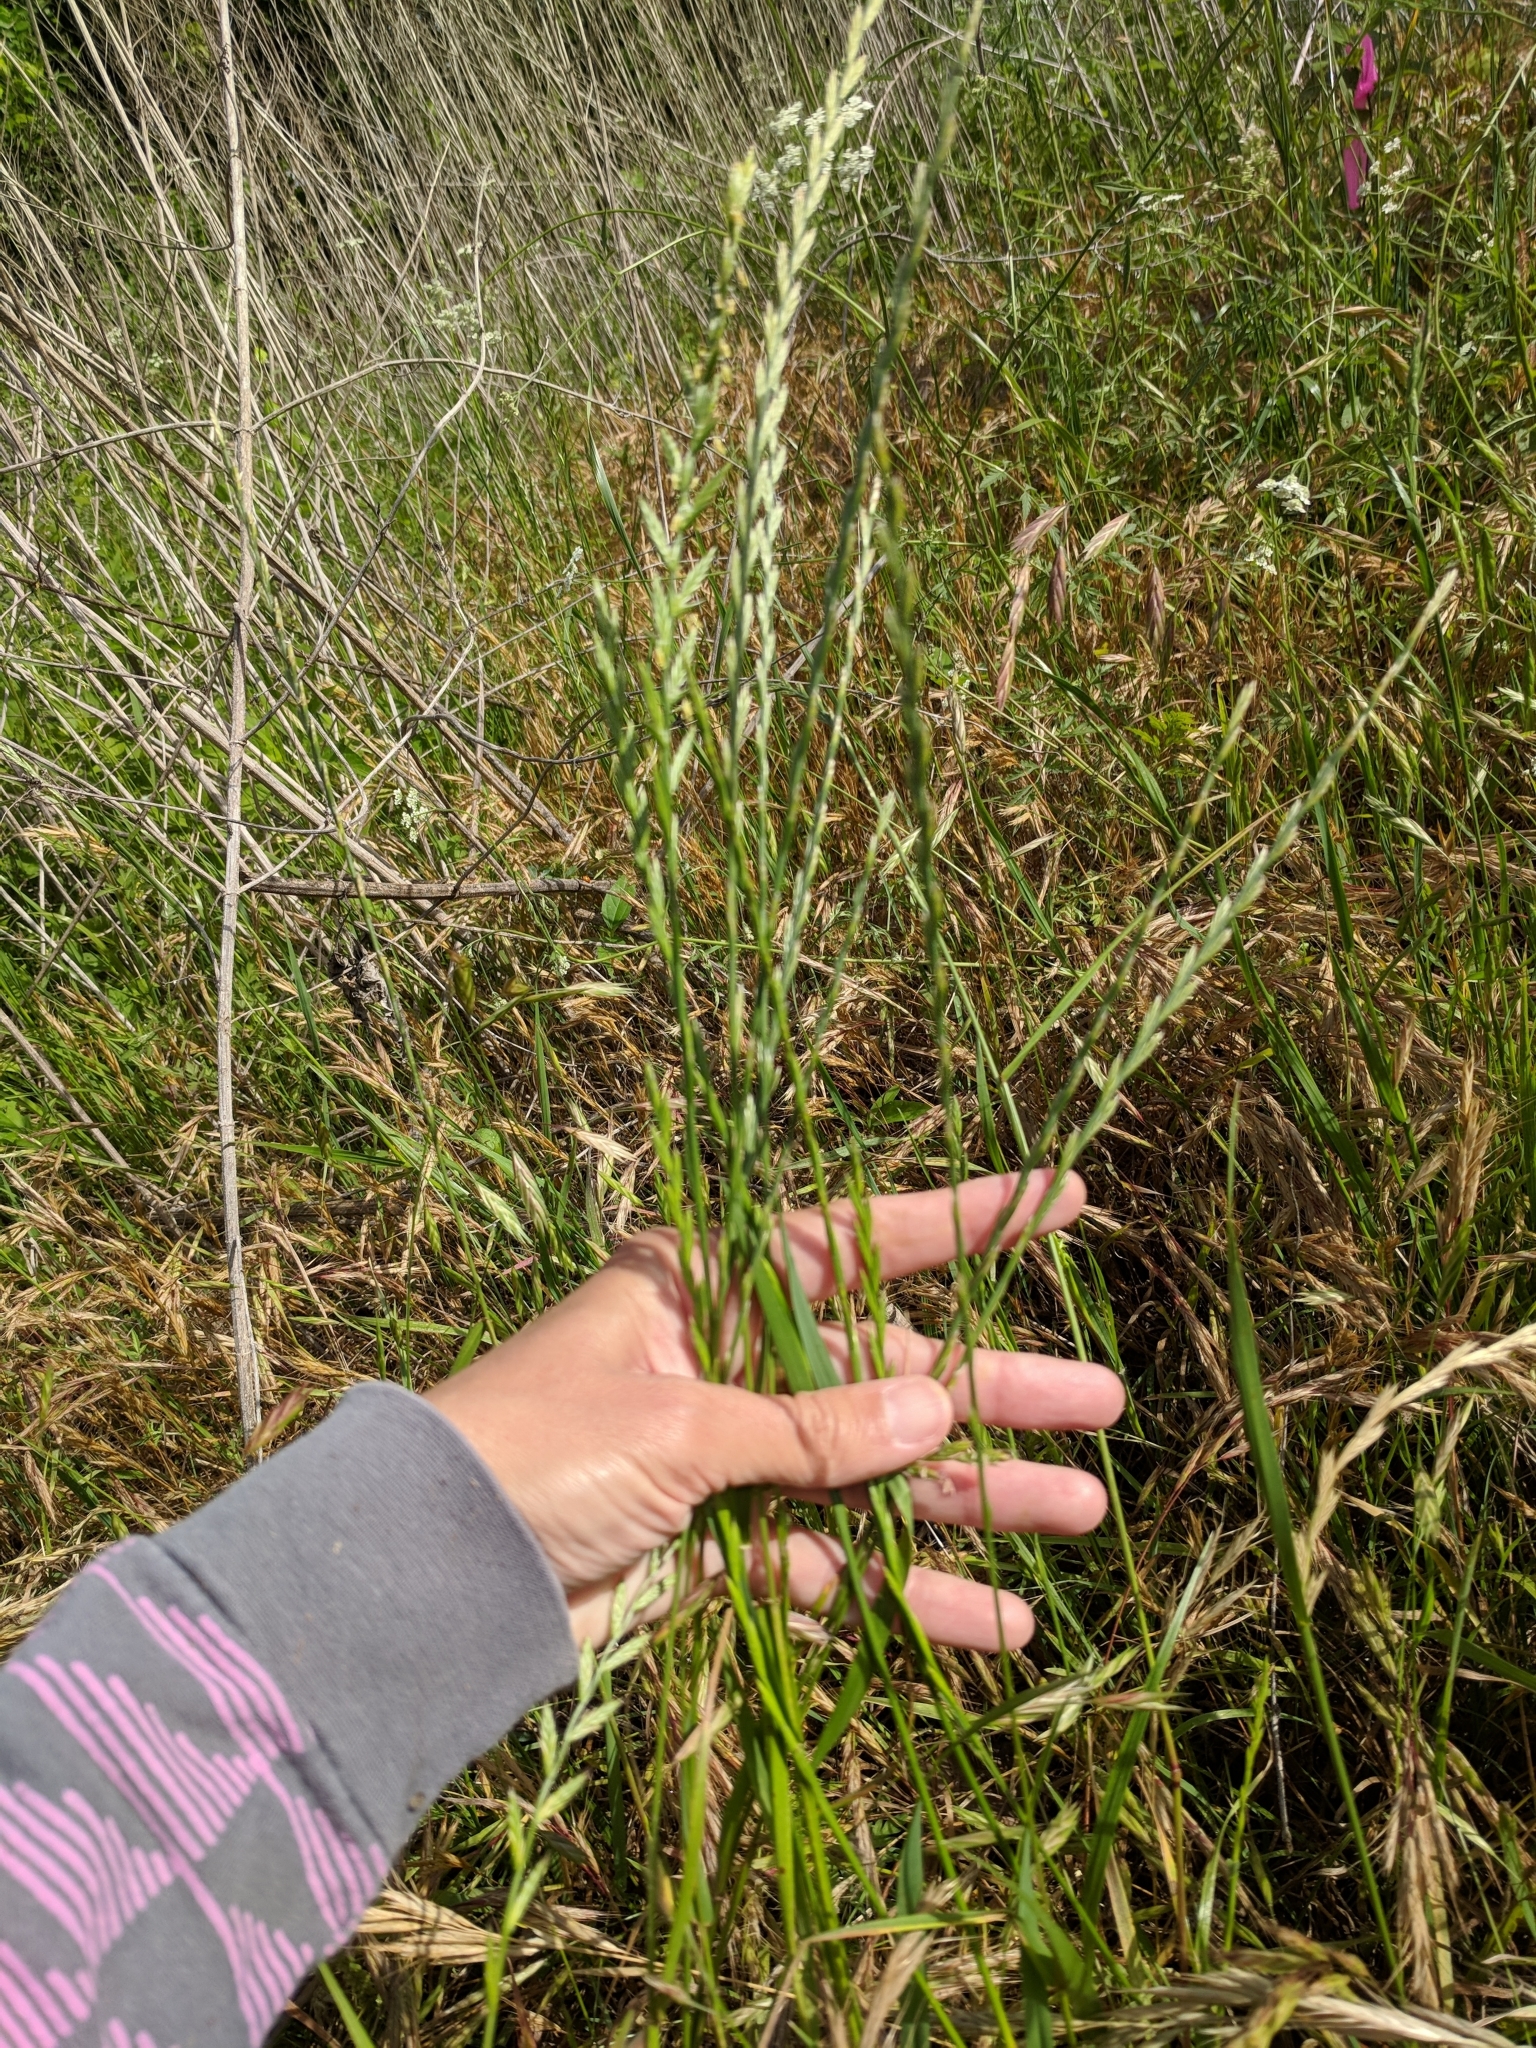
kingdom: Plantae
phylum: Tracheophyta
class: Liliopsida
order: Poales
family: Poaceae
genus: Lolium
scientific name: Lolium perenne
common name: Perennial ryegrass
